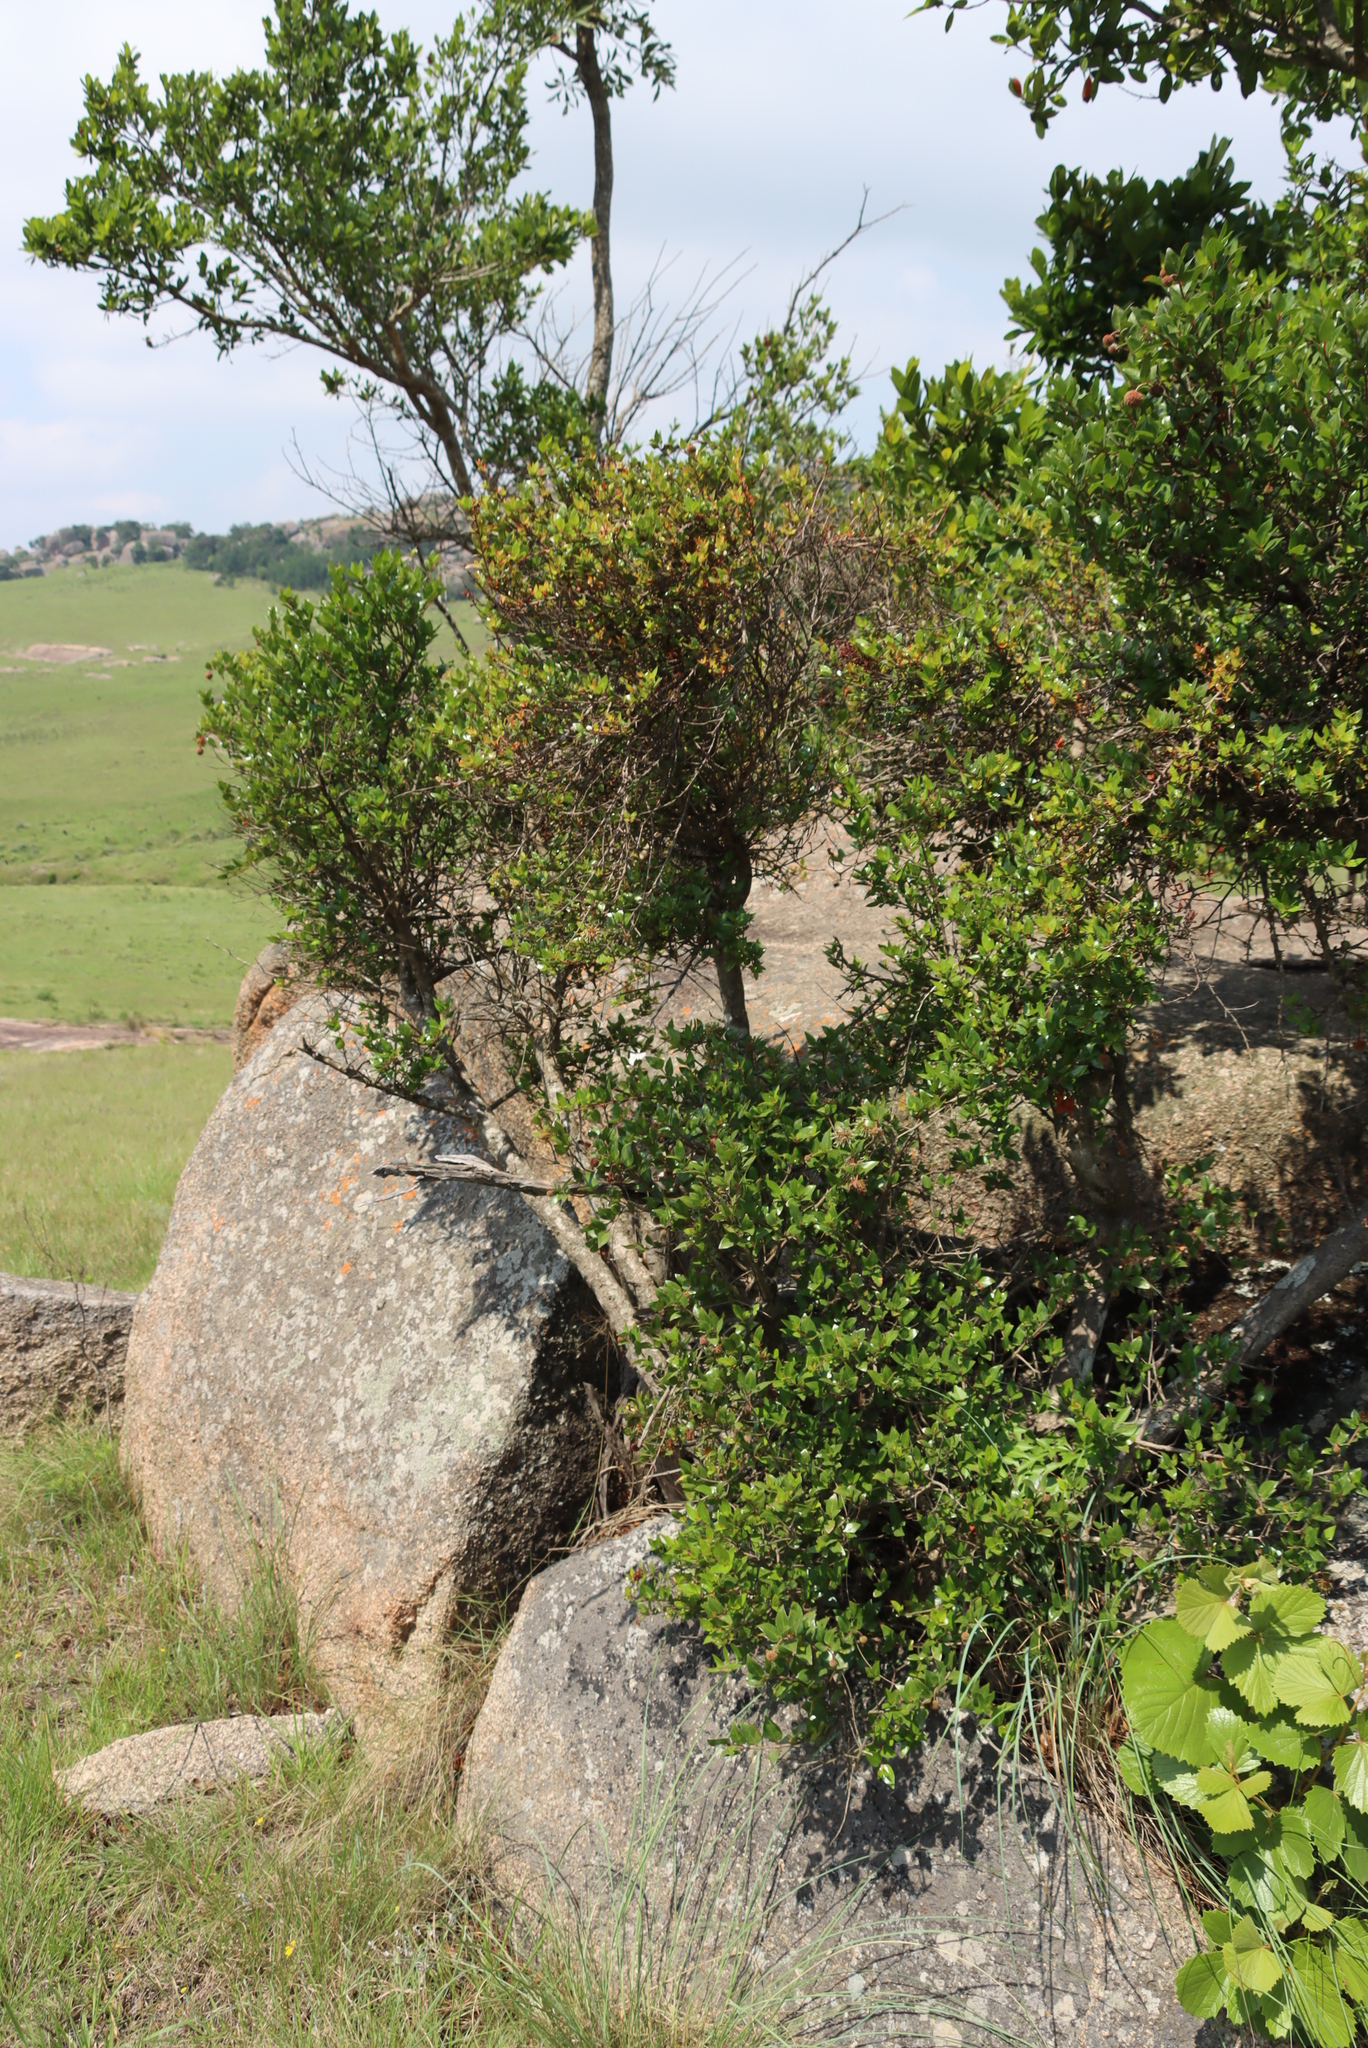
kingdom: Plantae
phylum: Tracheophyta
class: Magnoliopsida
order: Myrtales
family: Combretaceae
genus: Combretum
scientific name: Combretum kraussii
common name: Forest bushwillow
